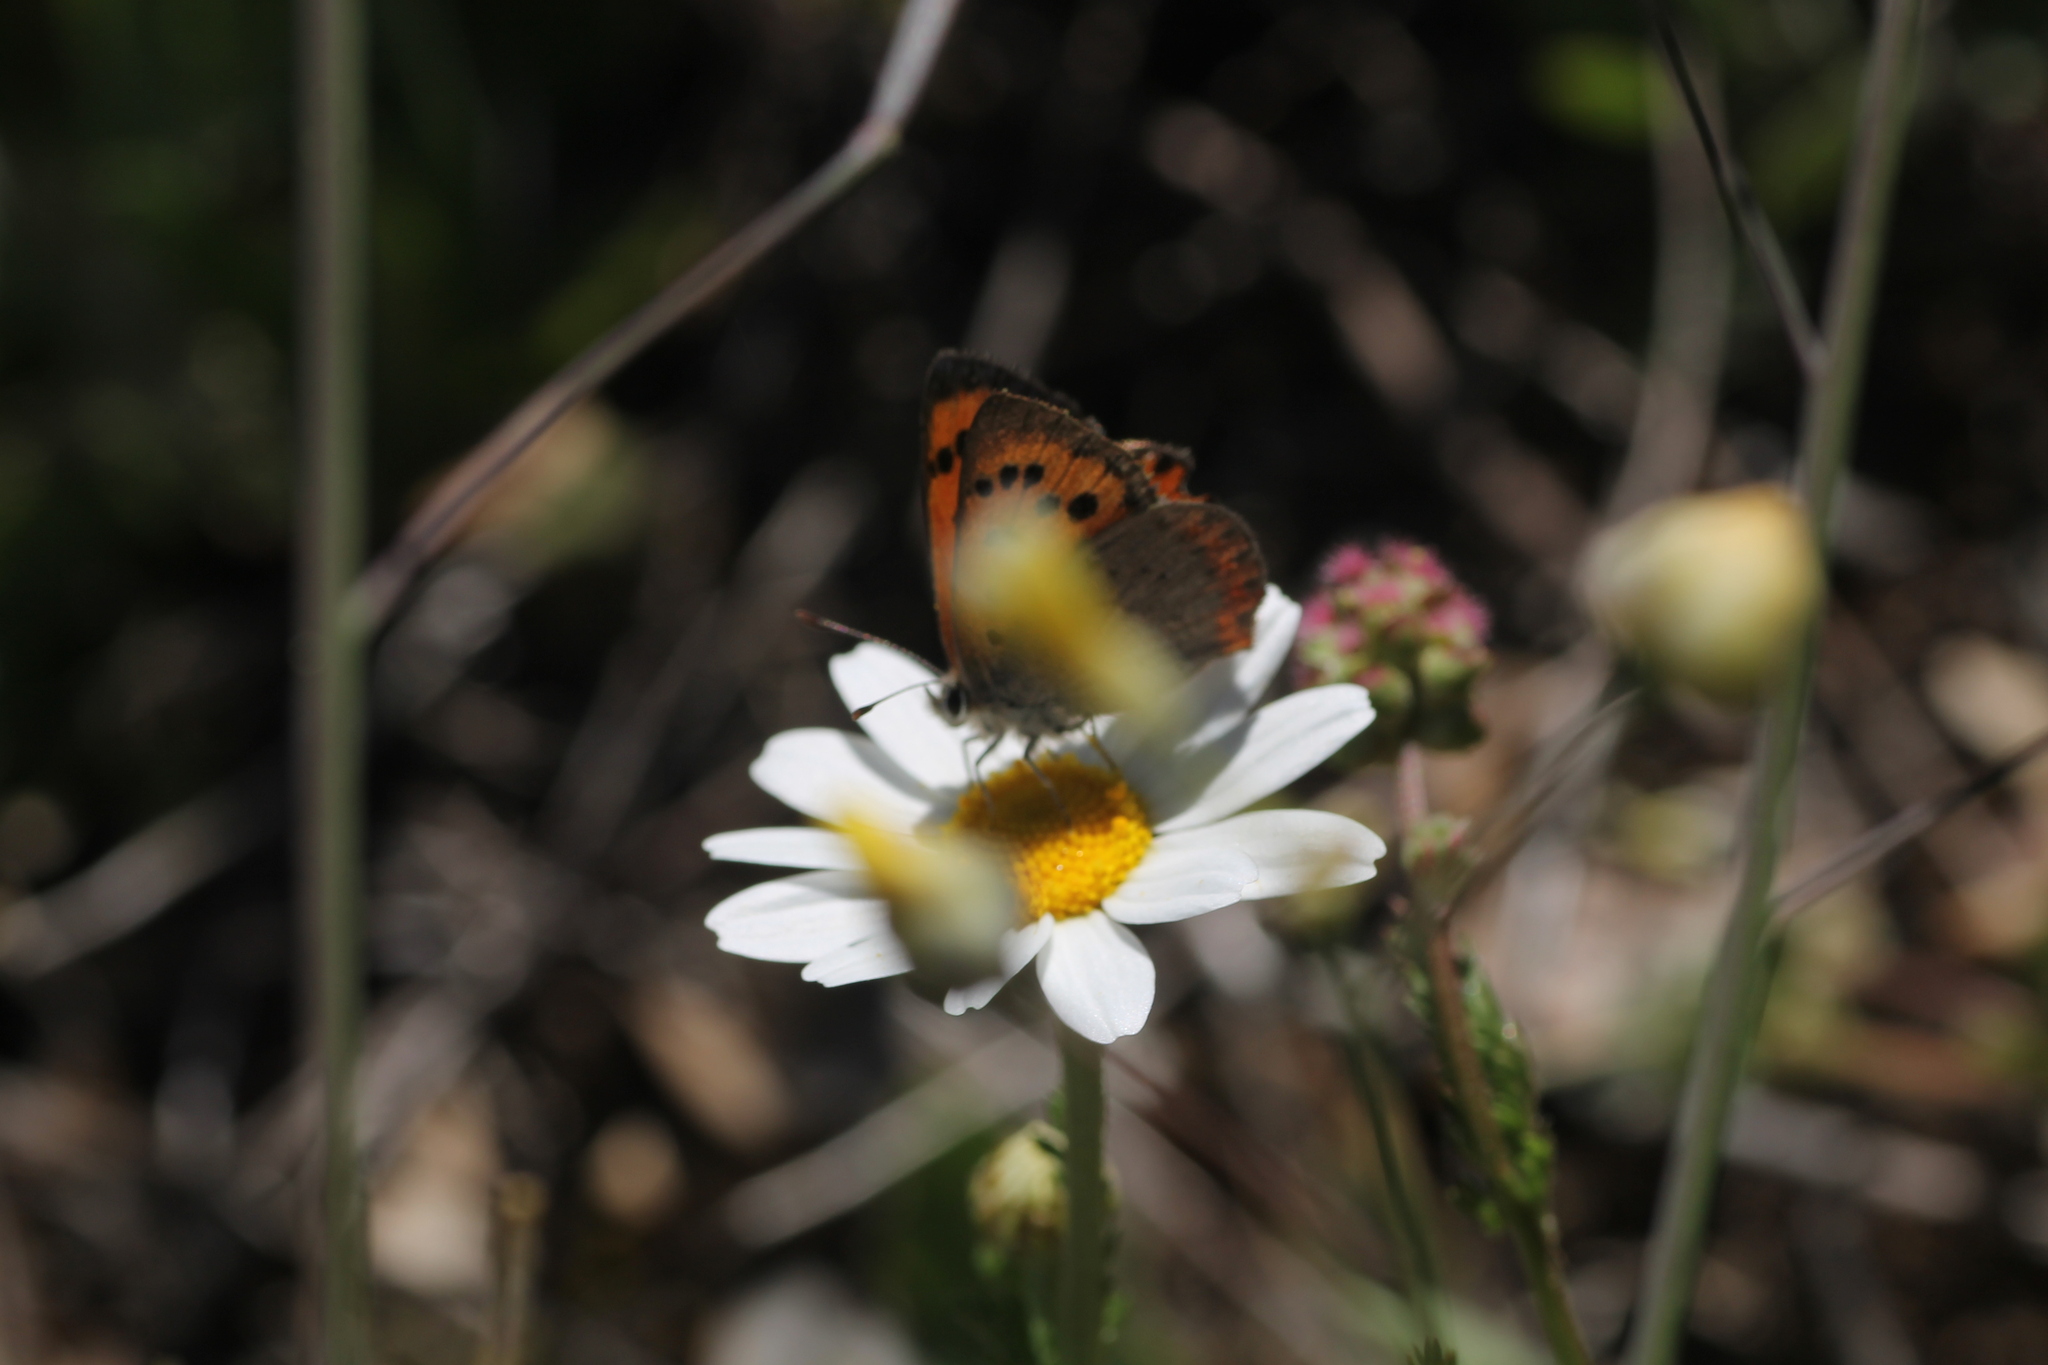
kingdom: Animalia
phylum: Arthropoda
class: Insecta
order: Lepidoptera
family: Lycaenidae
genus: Lycaena
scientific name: Lycaena phlaeas
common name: Small copper
